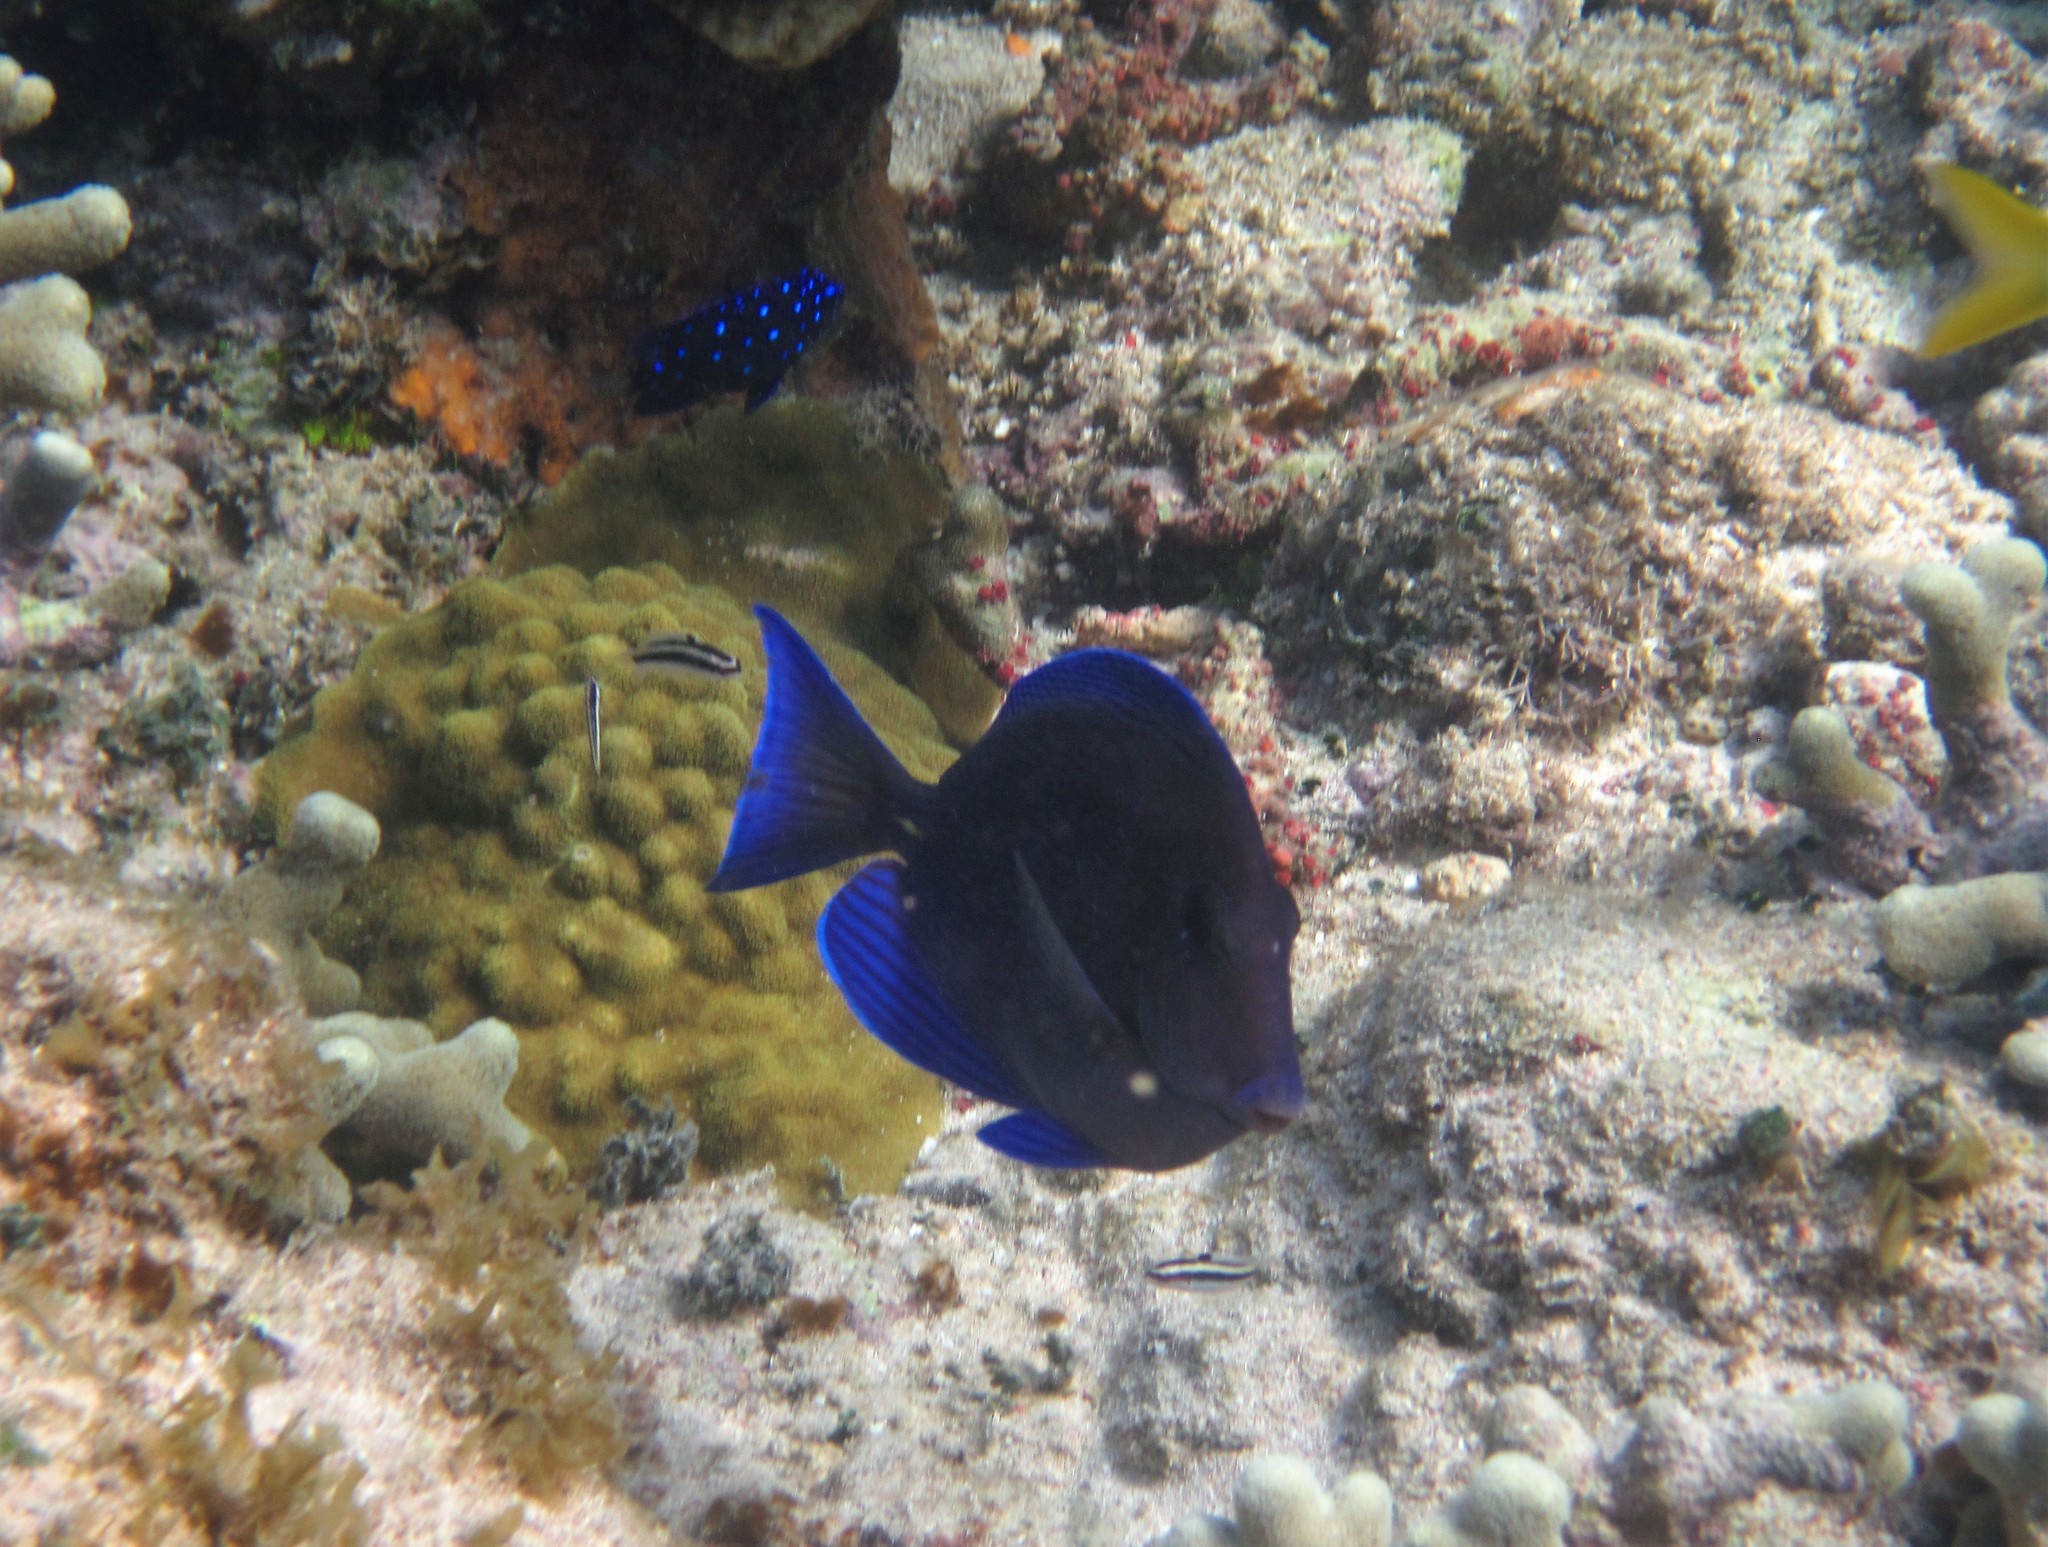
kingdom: Animalia
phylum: Chordata
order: Perciformes
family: Pomacentridae
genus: Microspathodon
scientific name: Microspathodon chrysurus
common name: Yellowtail damselfish
